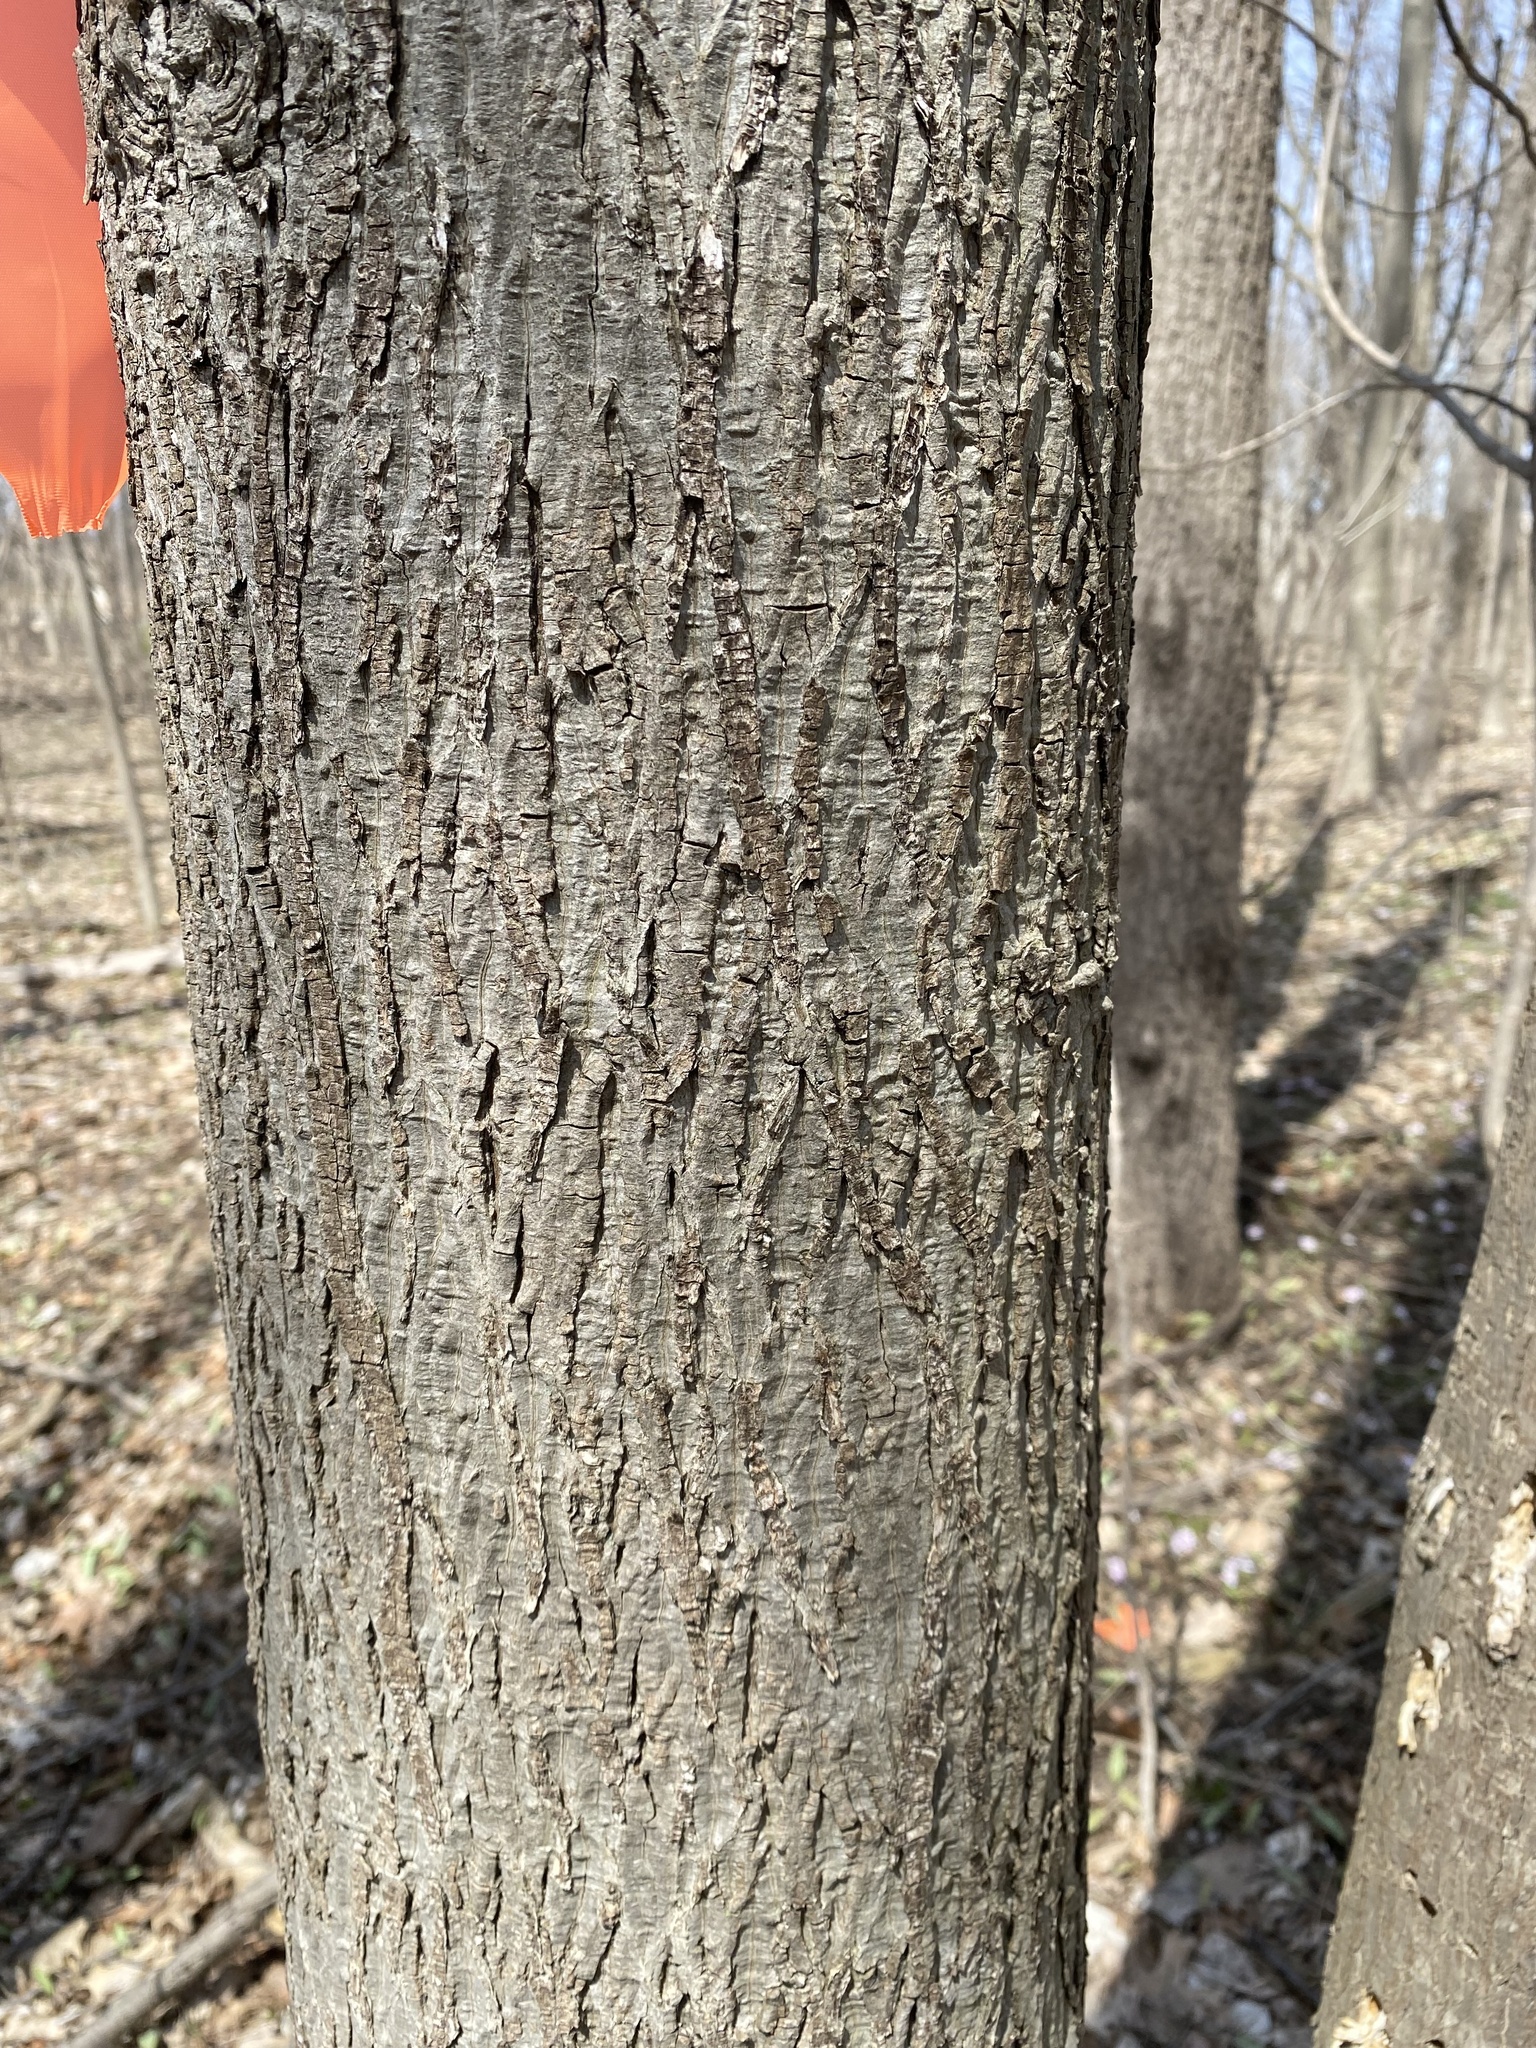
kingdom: Plantae
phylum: Tracheophyta
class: Magnoliopsida
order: Fagales
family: Juglandaceae
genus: Carya
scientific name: Carya cordiformis
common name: Bitternut hickory
